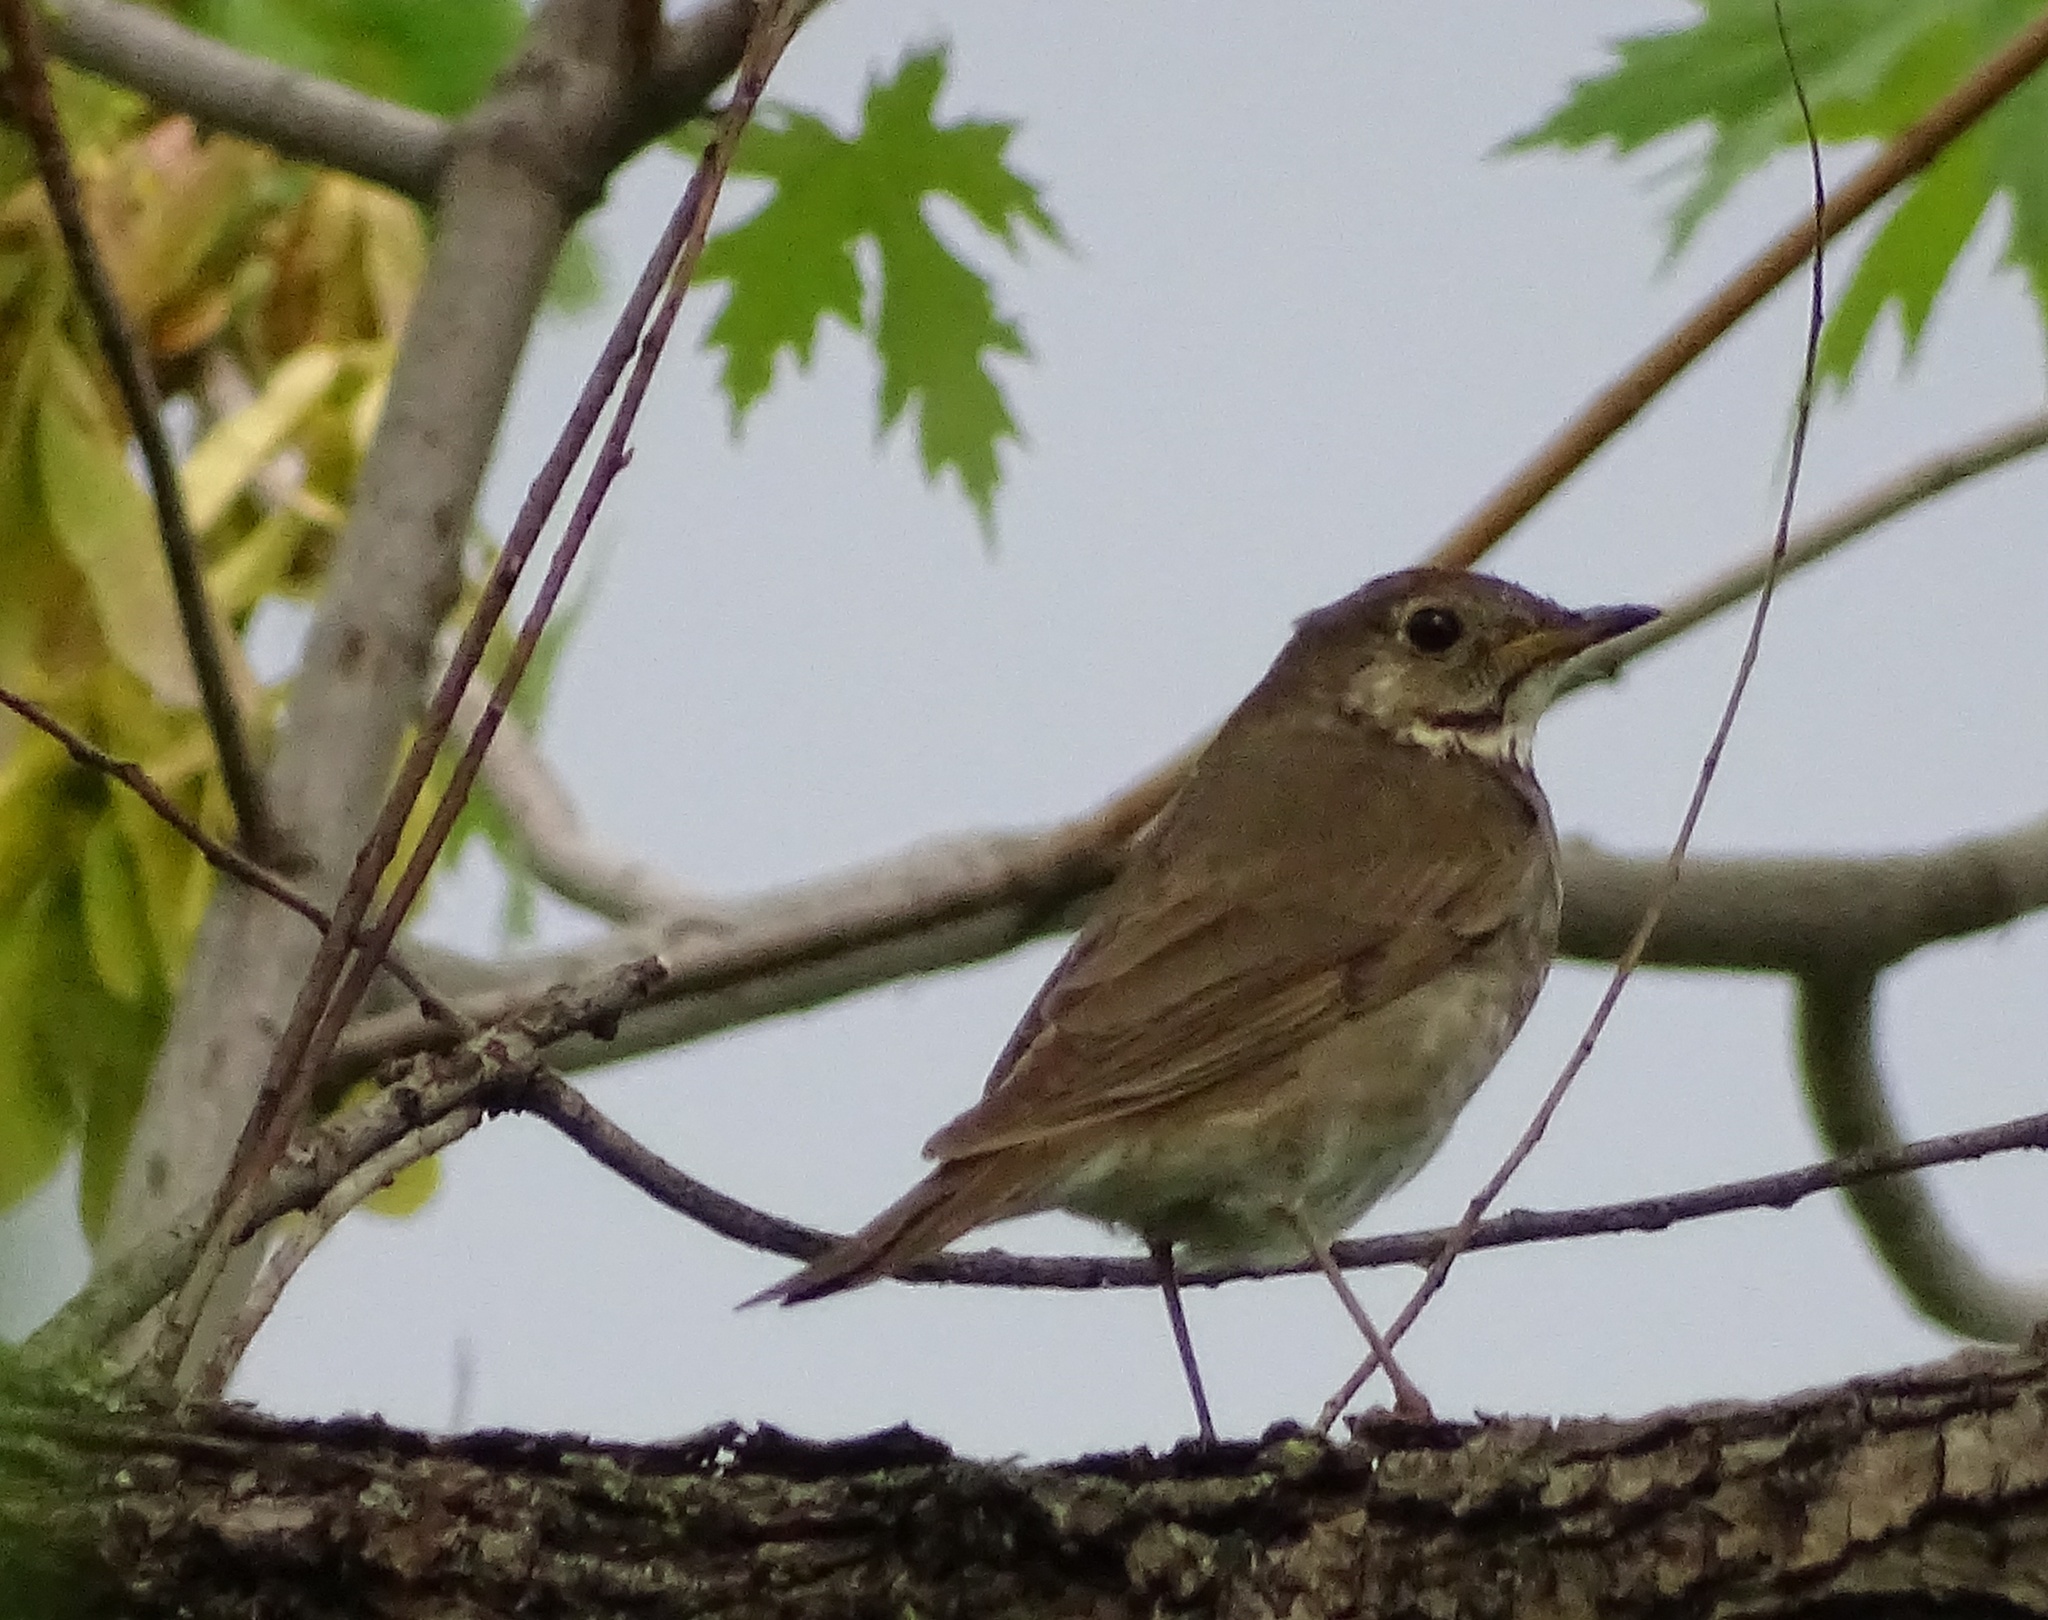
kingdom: Animalia
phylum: Chordata
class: Aves
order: Passeriformes
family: Turdidae
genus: Catharus
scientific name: Catharus minimus
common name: Grey-cheeked thrush
